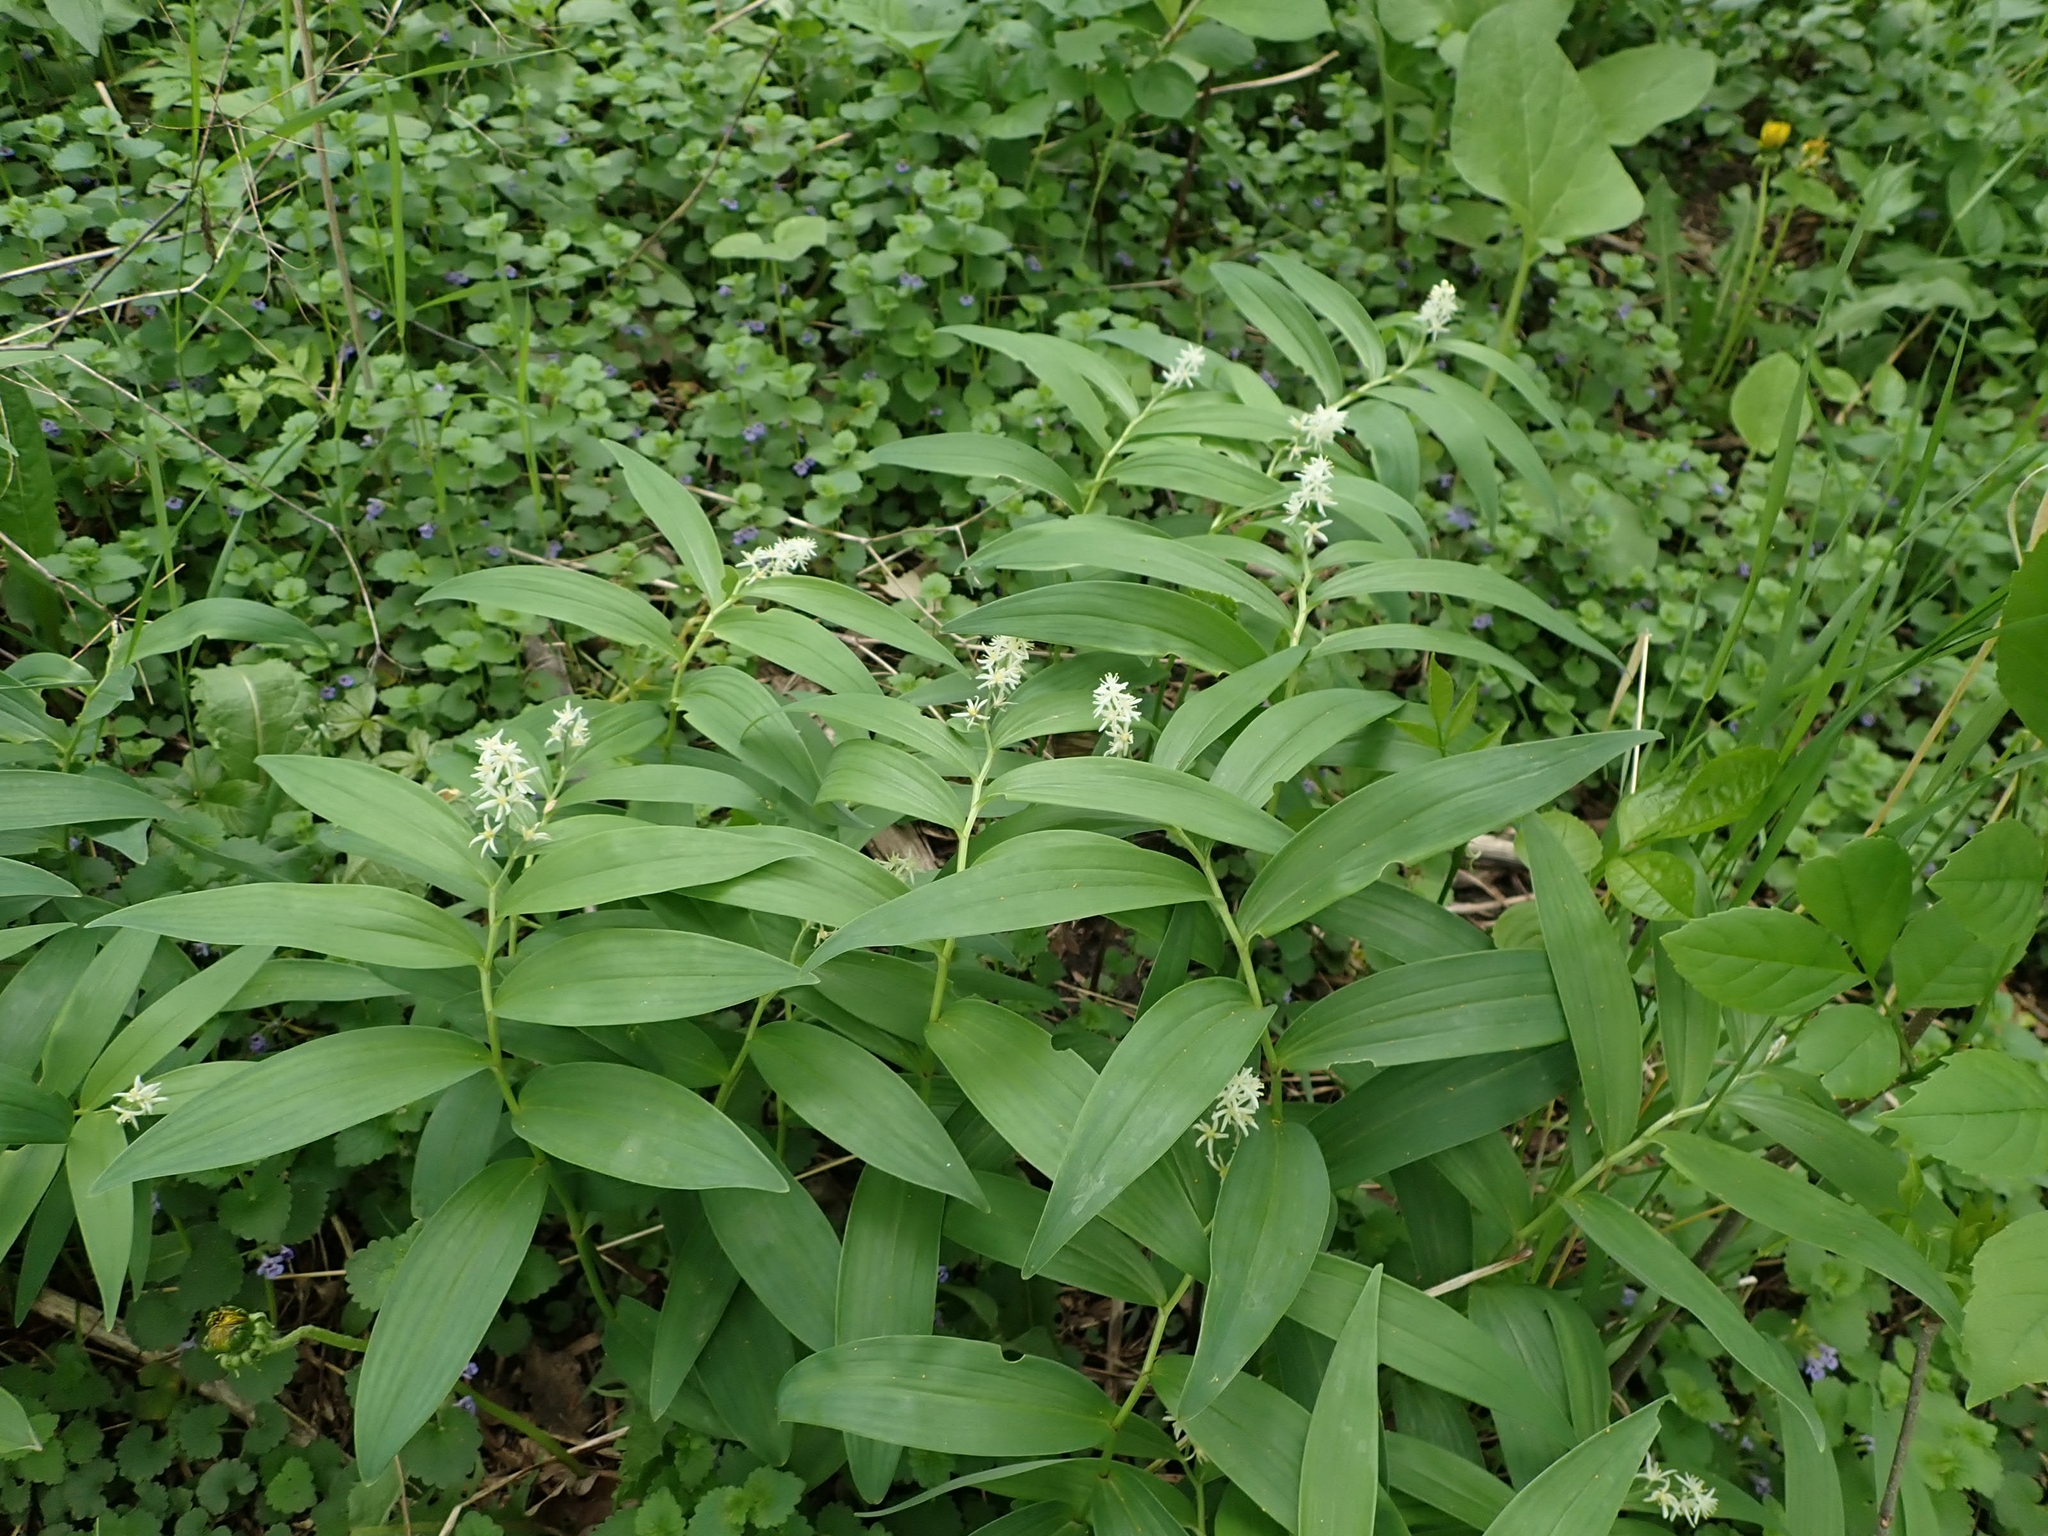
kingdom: Plantae
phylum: Tracheophyta
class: Liliopsida
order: Asparagales
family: Asparagaceae
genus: Maianthemum
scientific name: Maianthemum stellatum
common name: Little false solomon's seal
